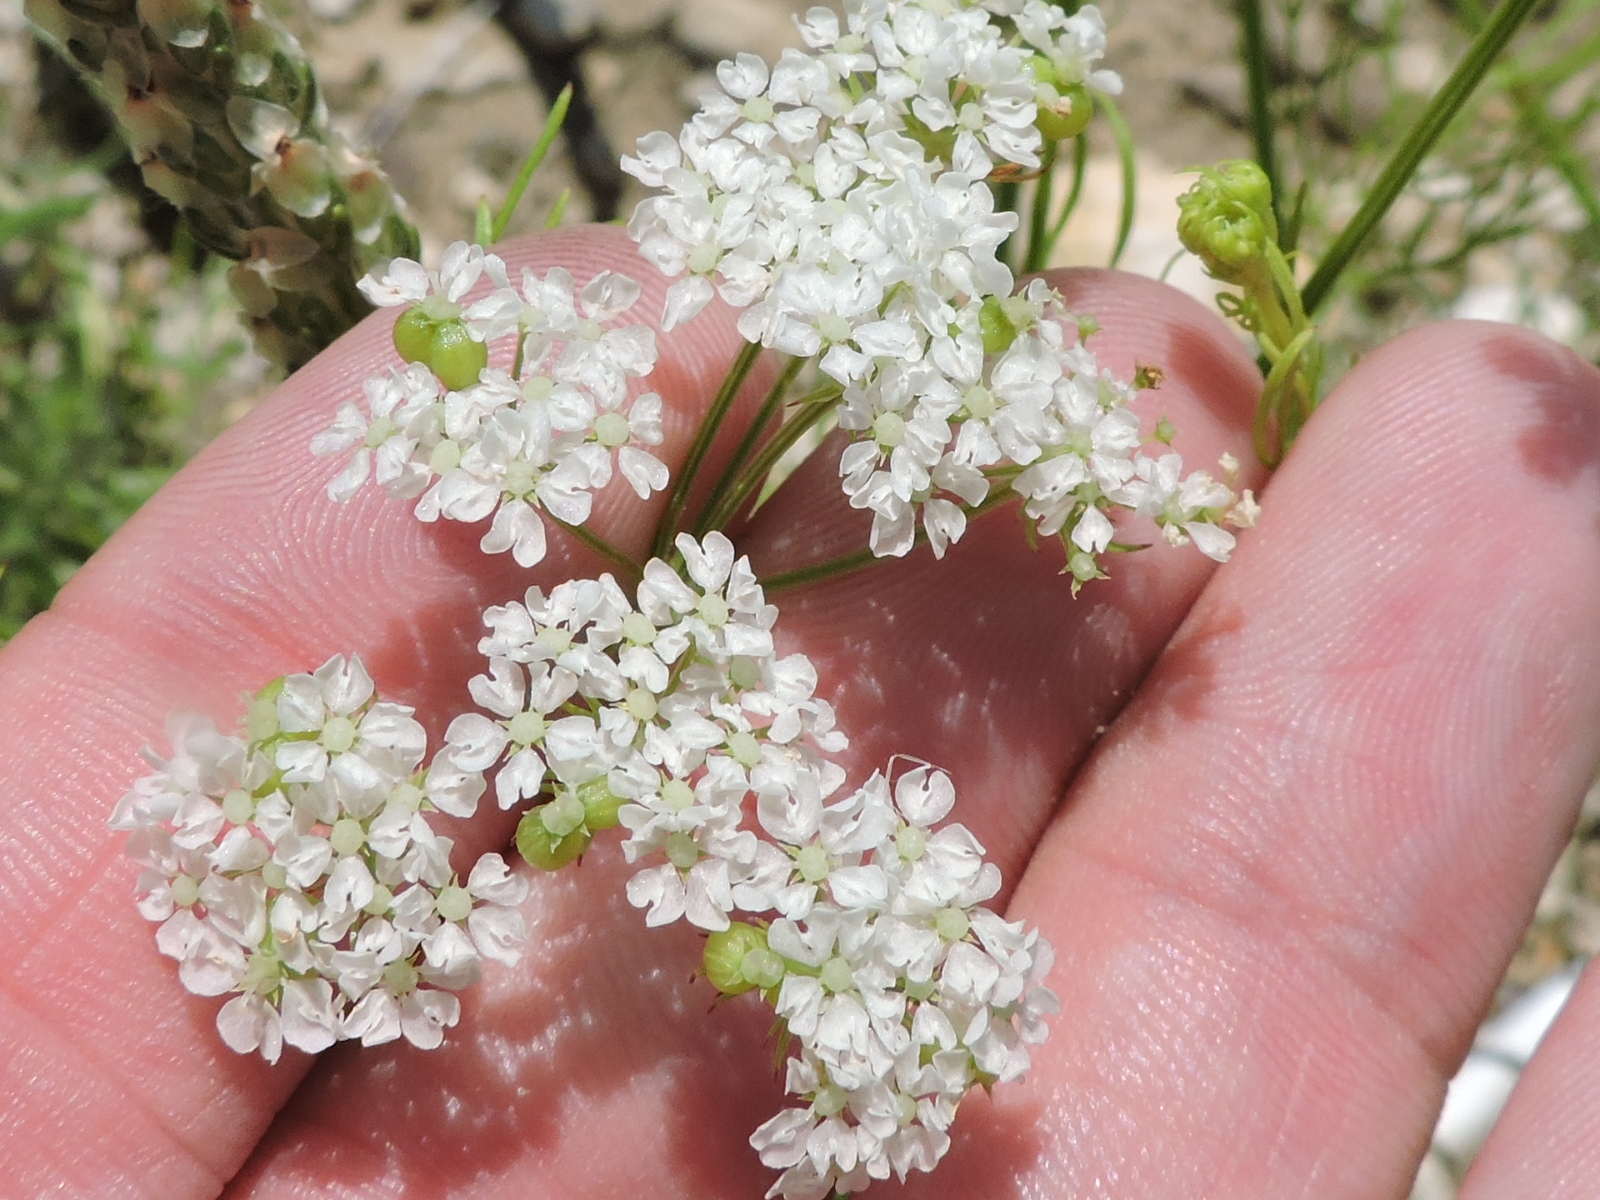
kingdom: Plantae
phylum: Tracheophyta
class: Magnoliopsida
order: Apiales
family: Apiaceae
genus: Atrema
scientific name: Atrema americanum
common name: Prairie-bishop
